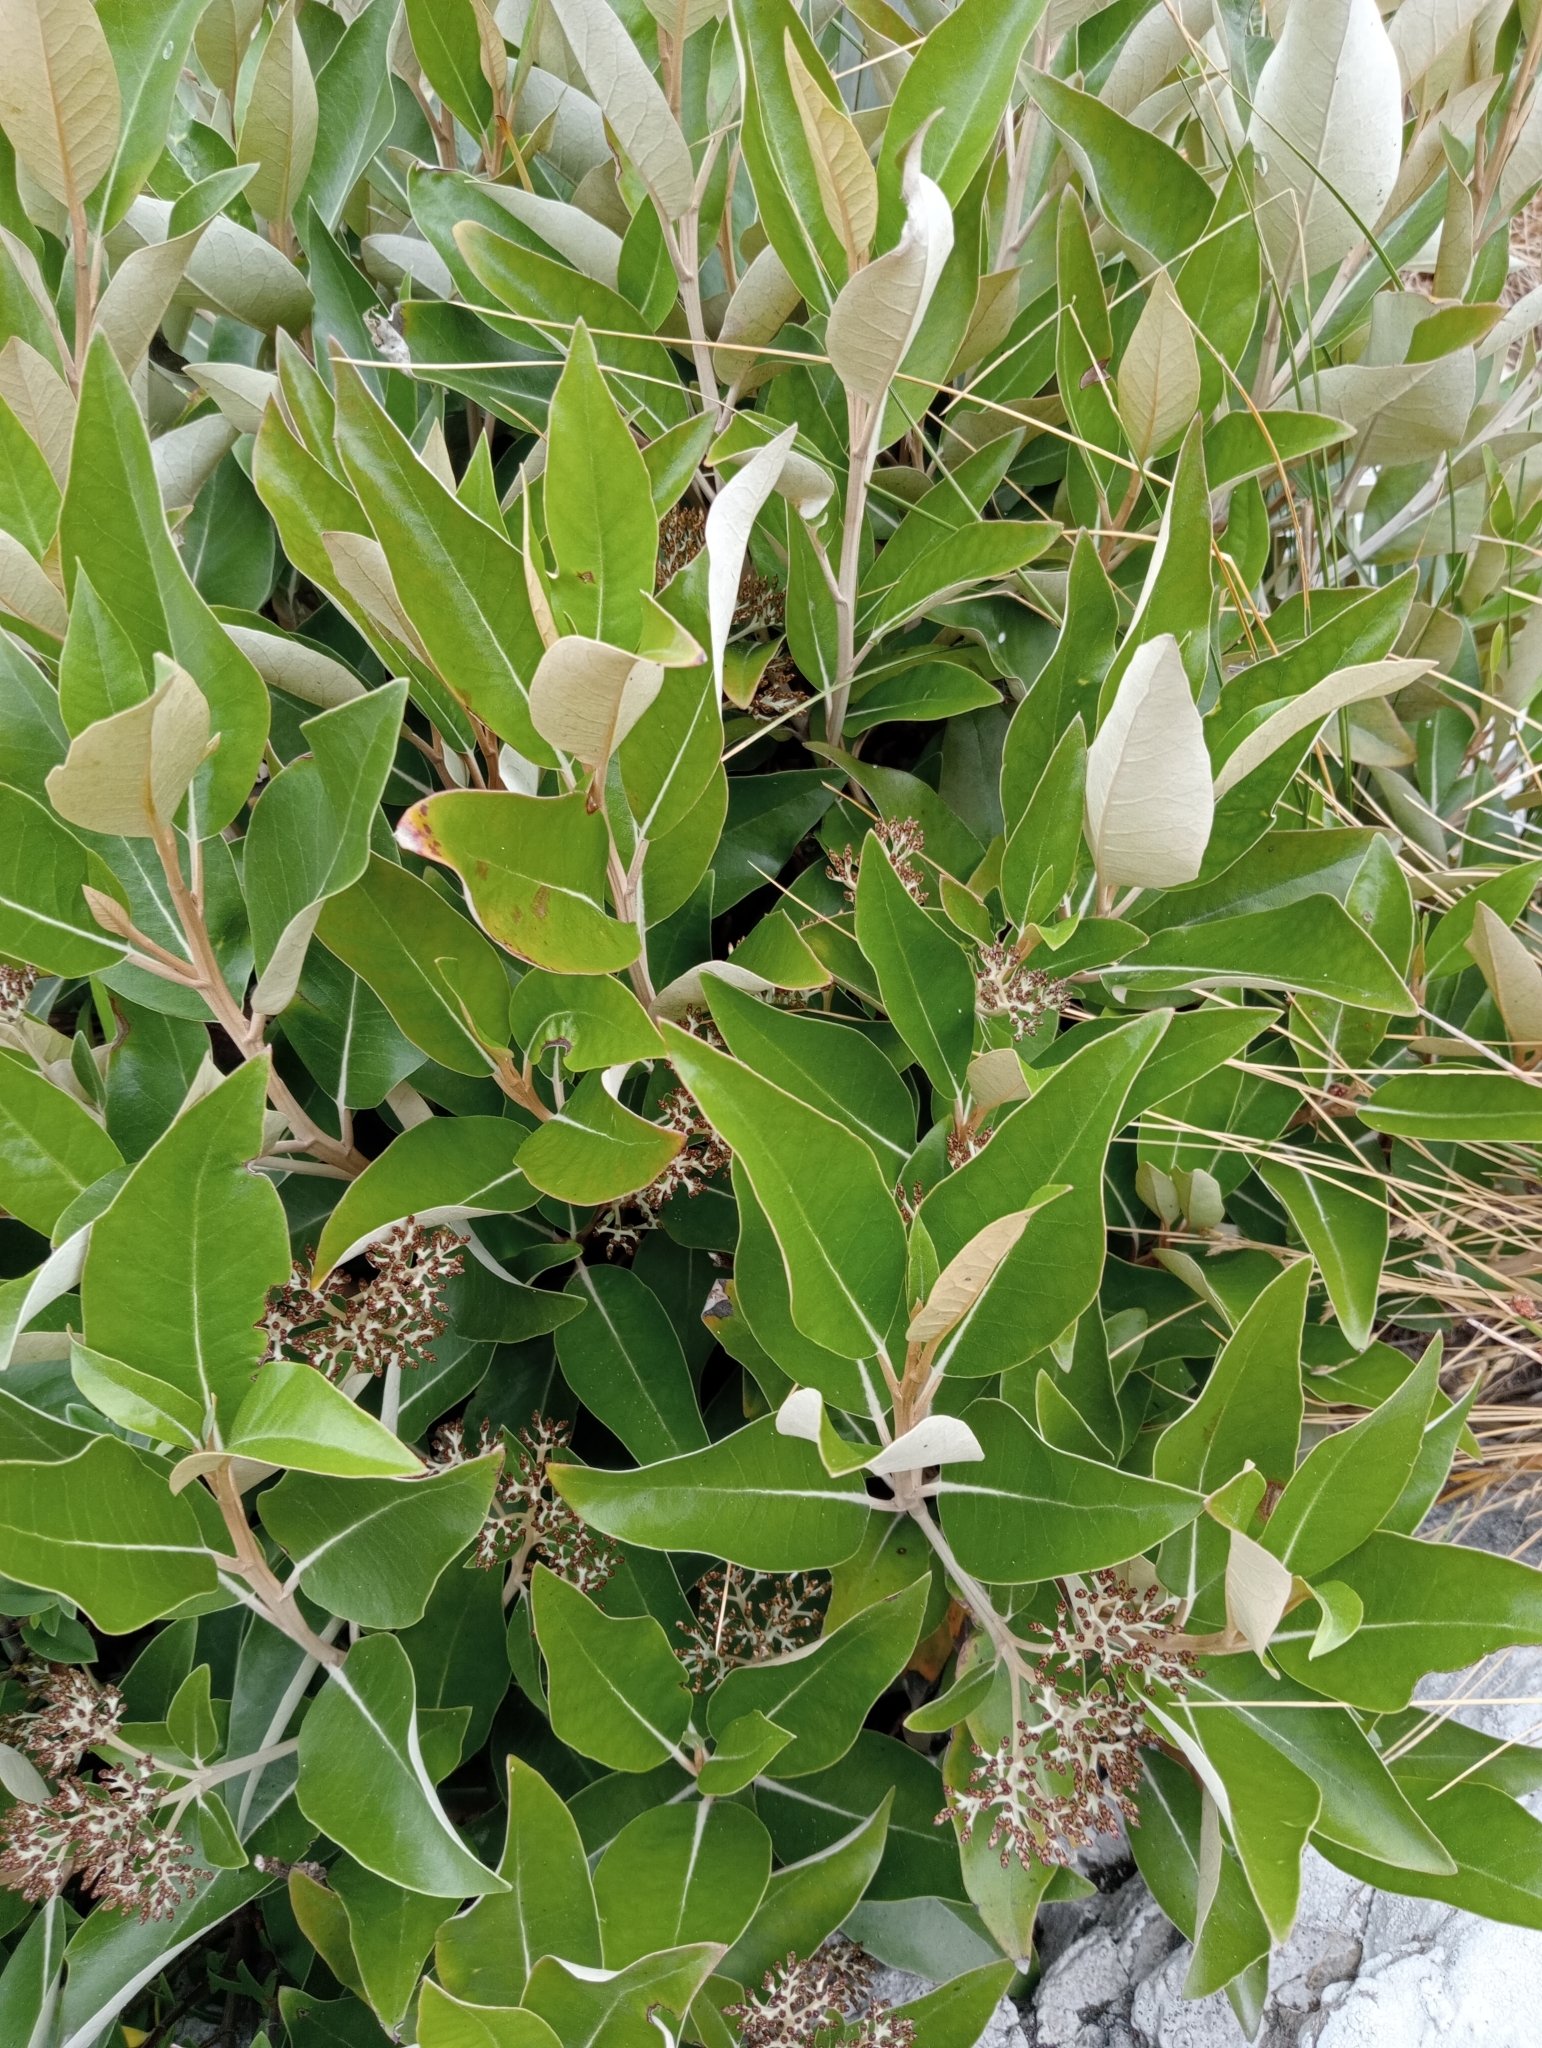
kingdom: Plantae
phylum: Tracheophyta
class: Magnoliopsida
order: Asterales
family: Asteraceae
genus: Olearia
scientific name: Olearia avicenniifolia
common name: Mangrove-leaf daisybush
